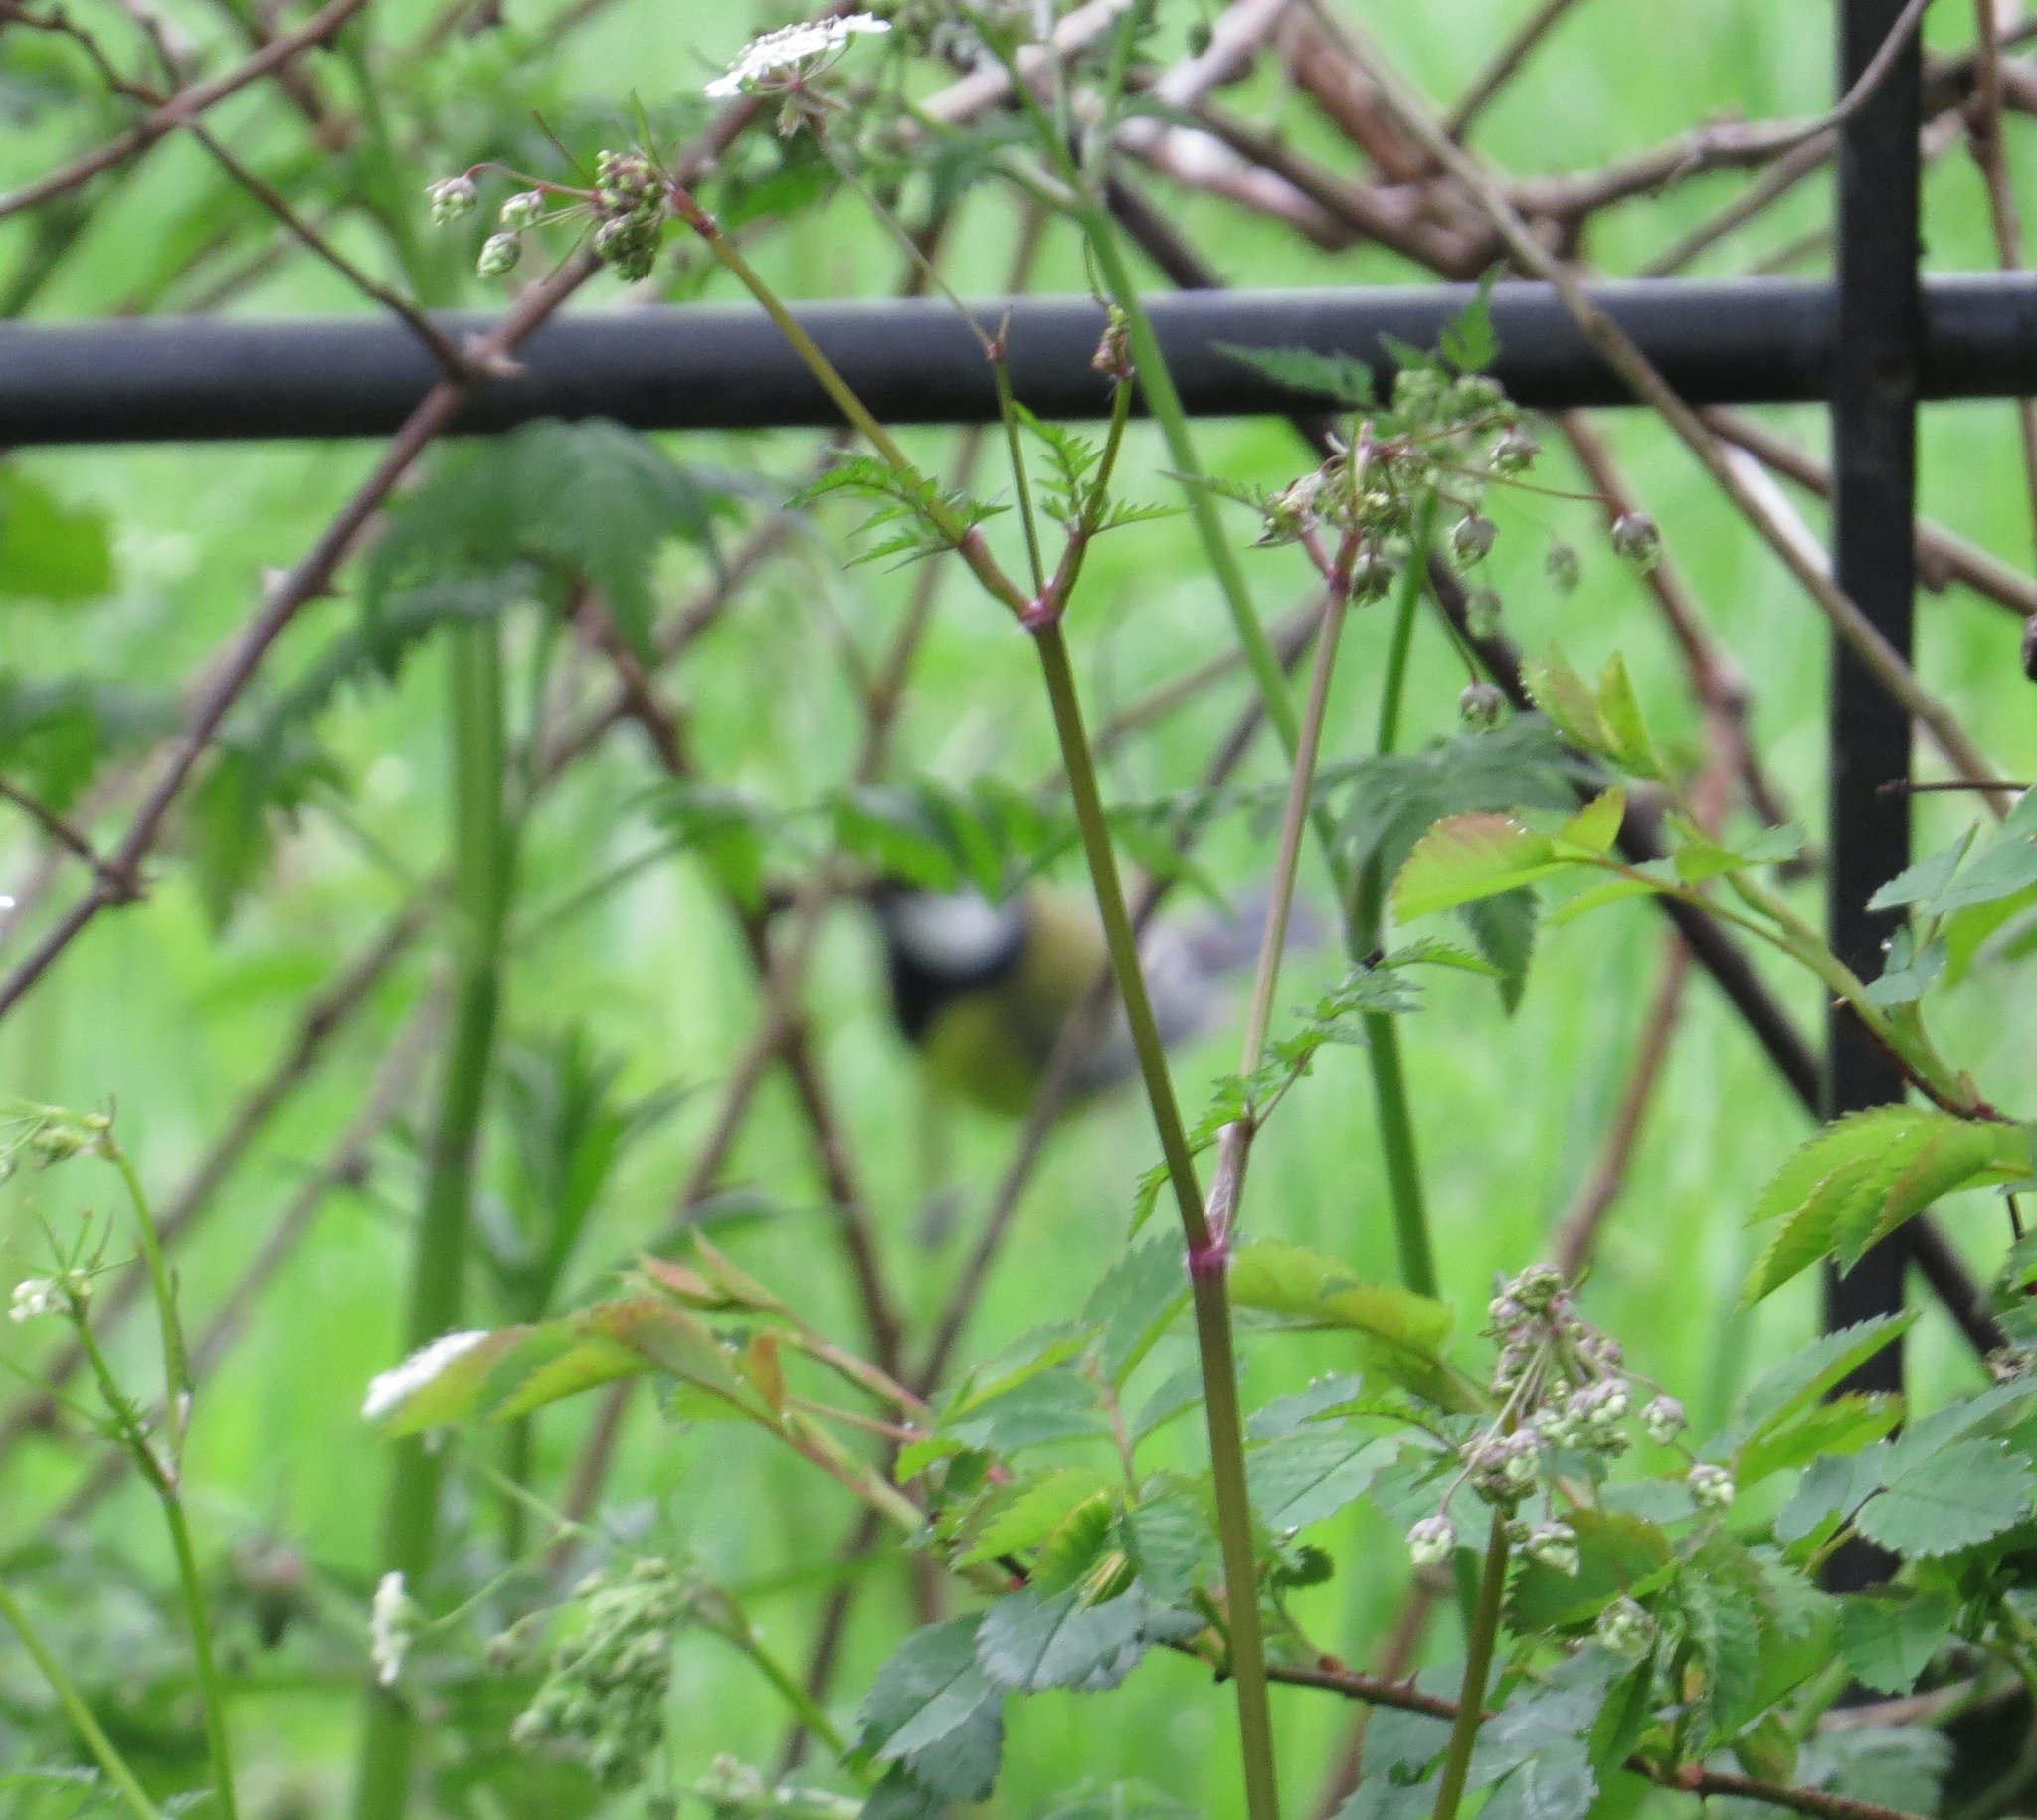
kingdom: Animalia
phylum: Chordata
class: Aves
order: Passeriformes
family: Paridae
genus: Parus
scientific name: Parus major
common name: Great tit
